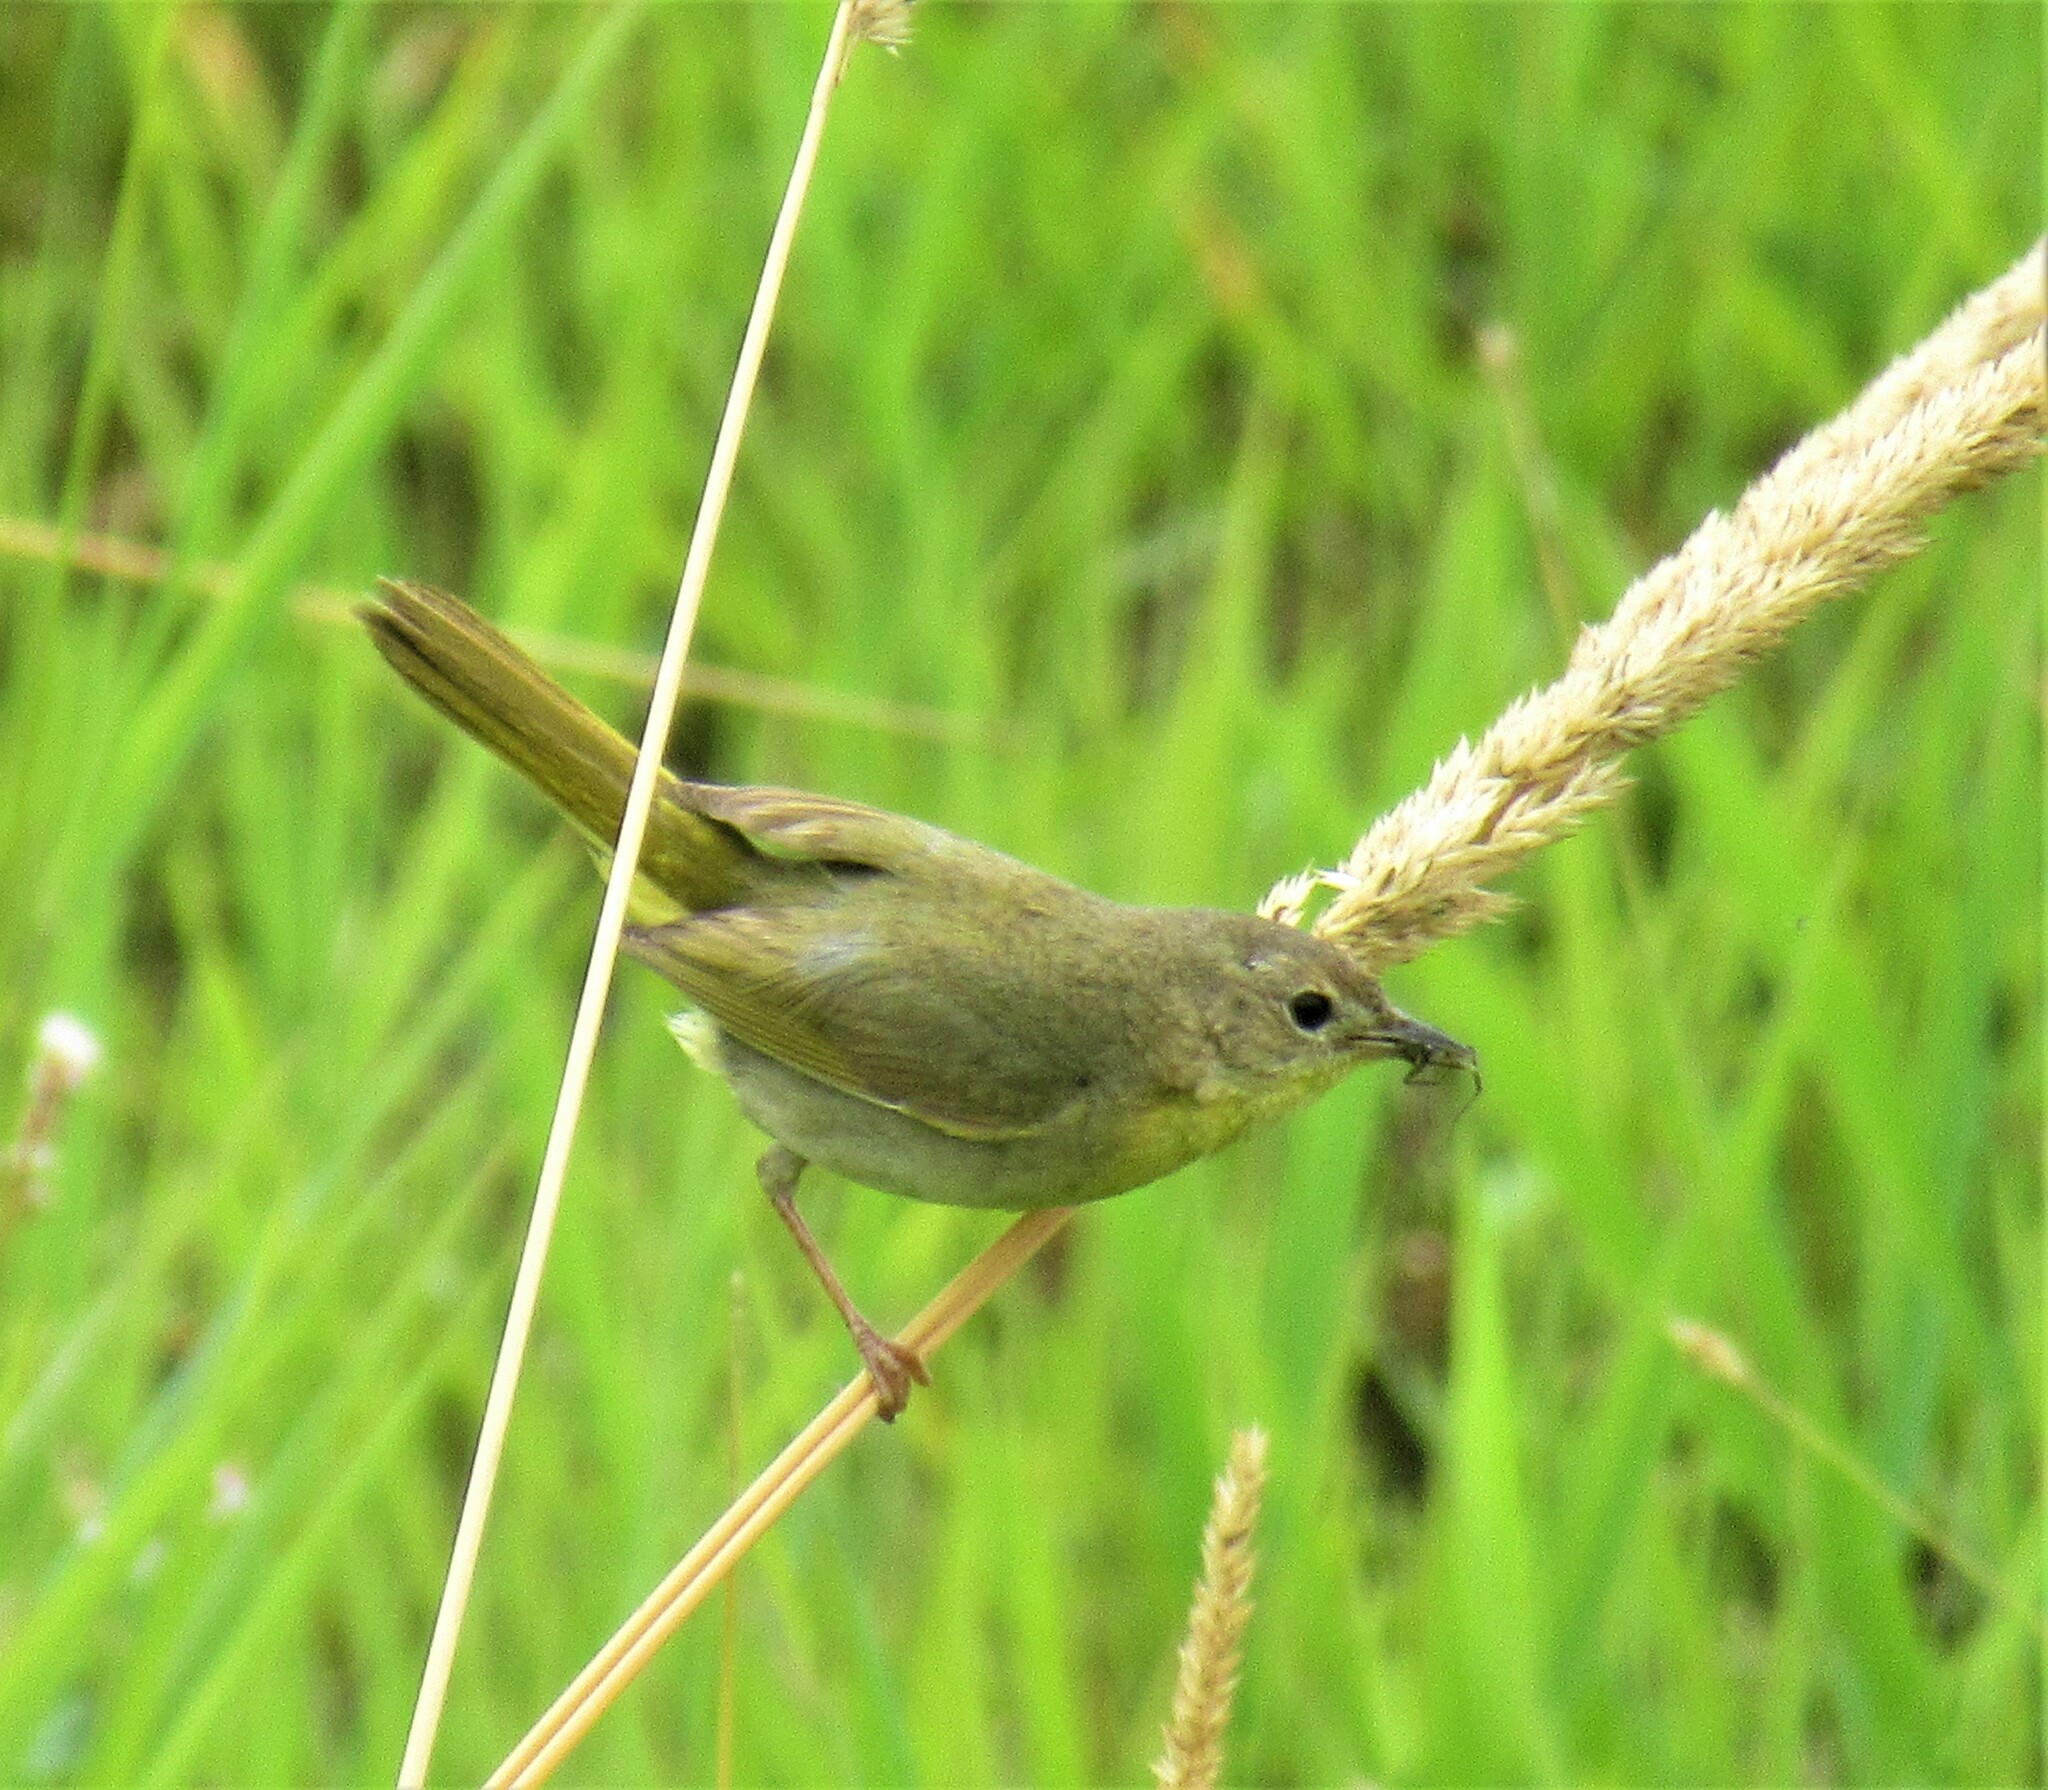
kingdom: Animalia
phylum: Chordata
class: Aves
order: Passeriformes
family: Parulidae
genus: Geothlypis
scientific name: Geothlypis trichas
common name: Common yellowthroat
